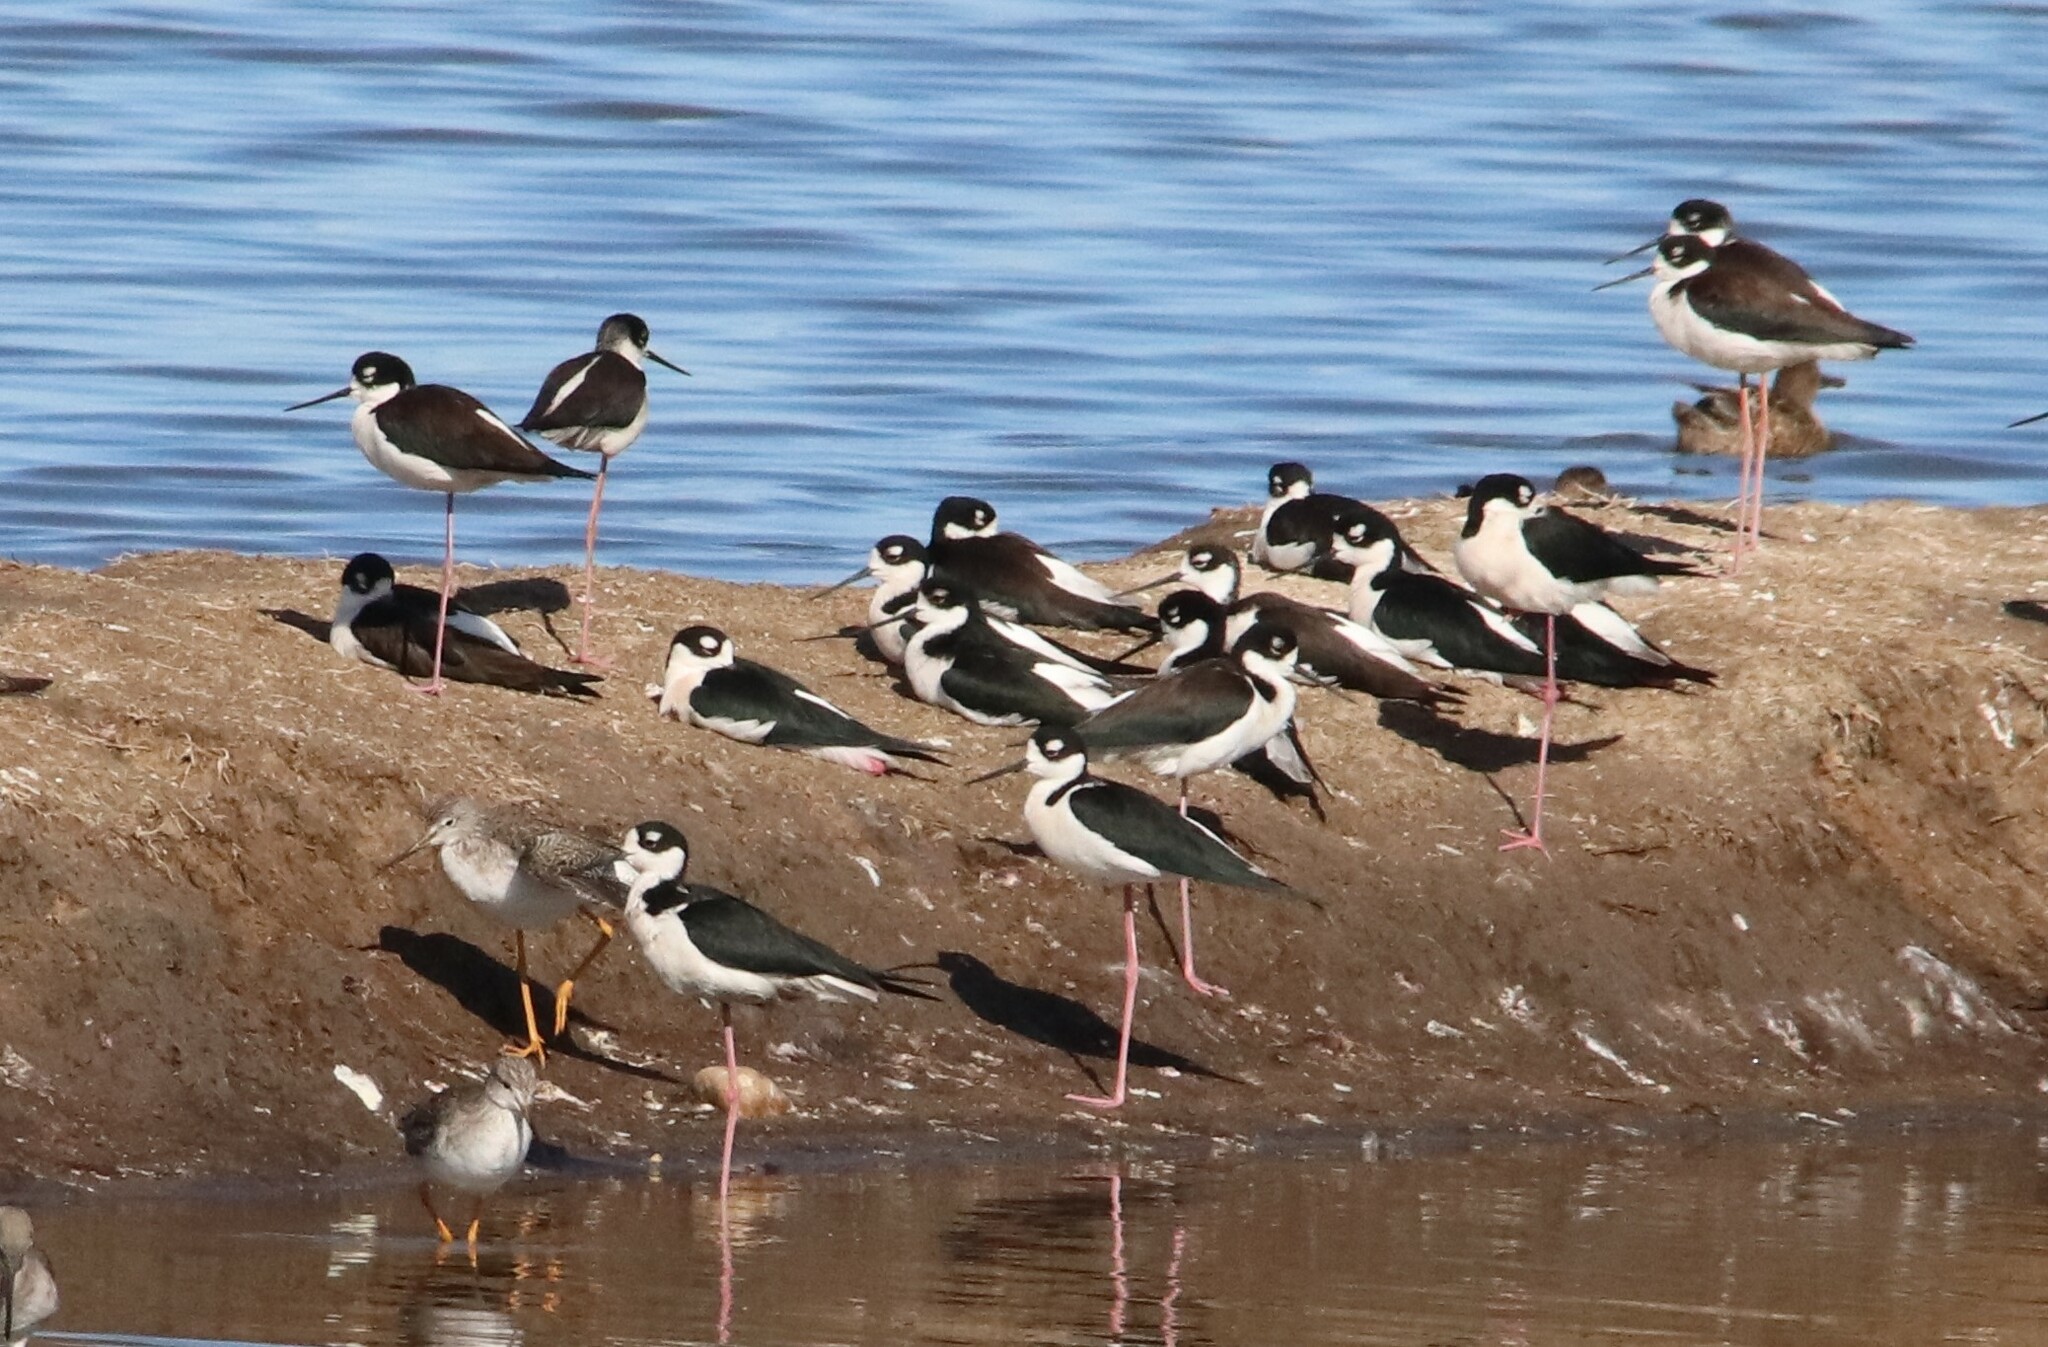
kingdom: Animalia
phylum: Chordata
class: Aves
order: Charadriiformes
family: Recurvirostridae
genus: Himantopus
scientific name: Himantopus mexicanus
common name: Black-necked stilt
